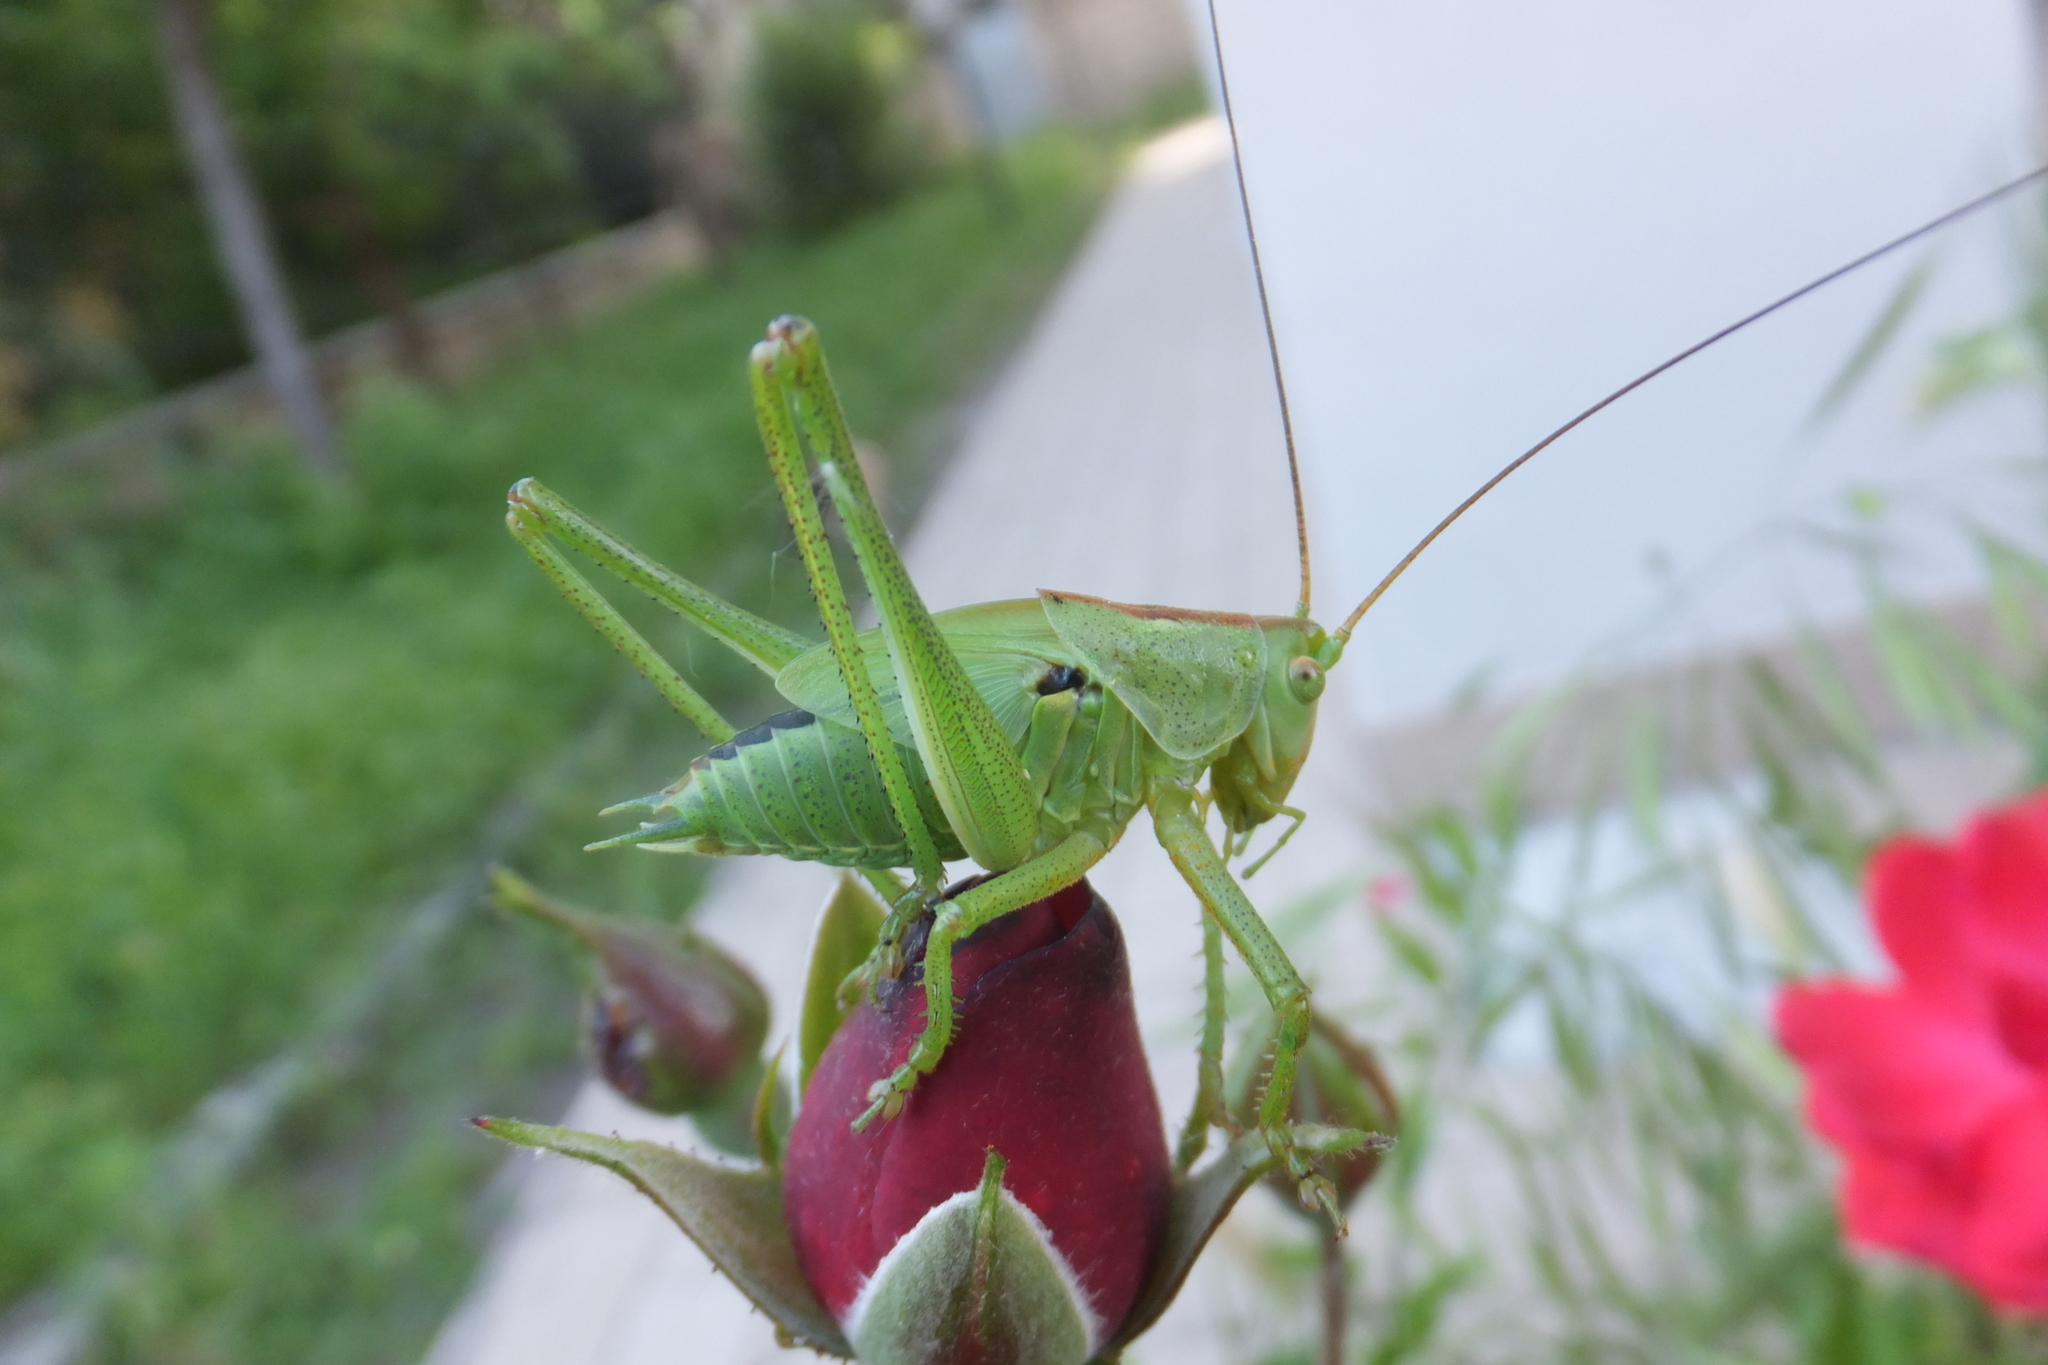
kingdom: Animalia
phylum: Arthropoda
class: Insecta
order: Orthoptera
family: Tettigoniidae
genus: Tettigonia
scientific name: Tettigonia viridissima
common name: Great green bush-cricket
